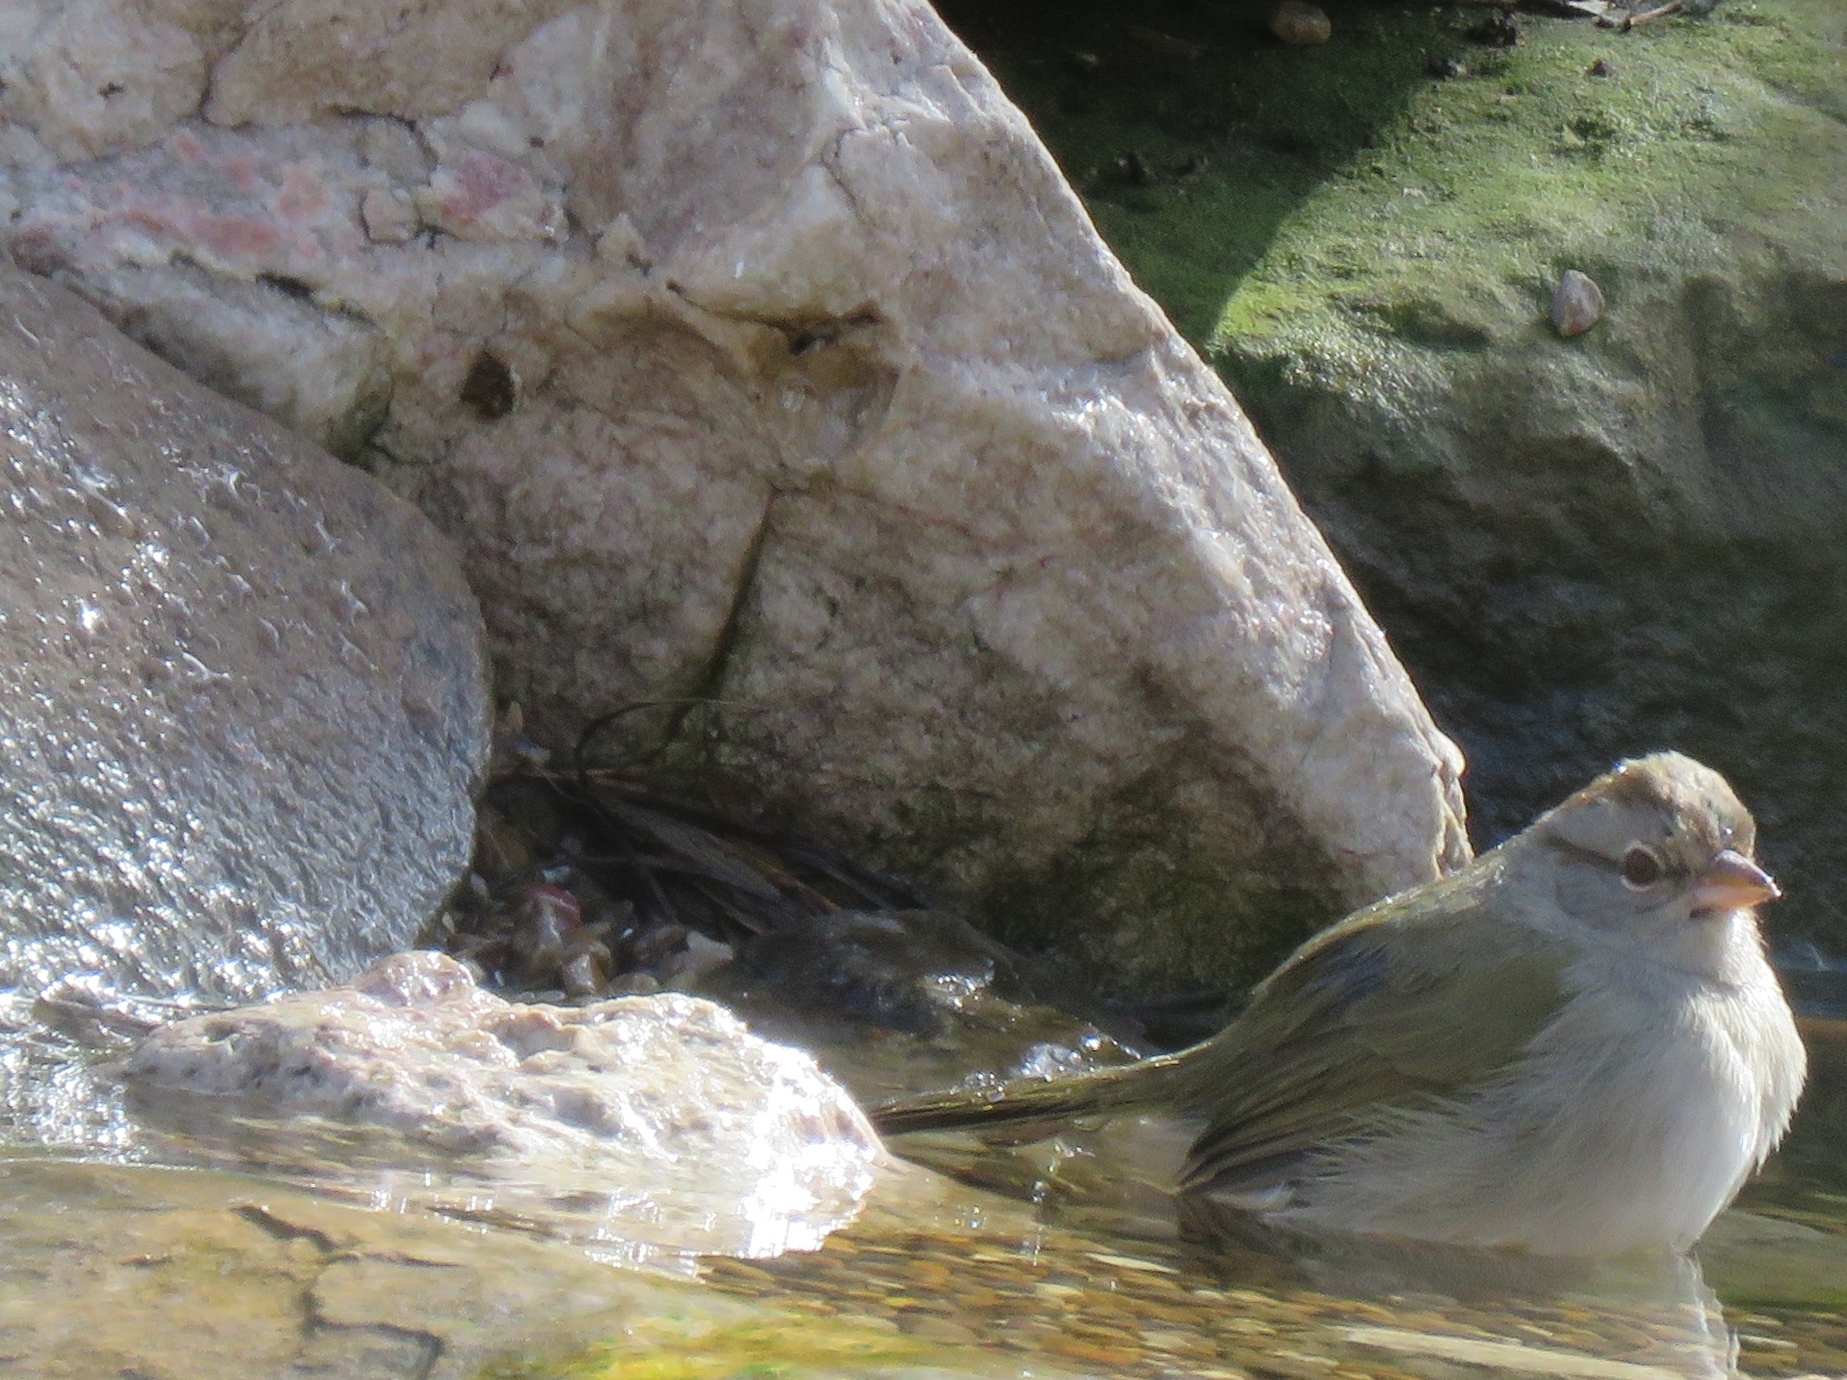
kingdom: Animalia
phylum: Chordata
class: Aves
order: Passeriformes
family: Passerellidae
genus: Arremonops
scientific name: Arremonops rufivirgatus
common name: Olive sparrow
